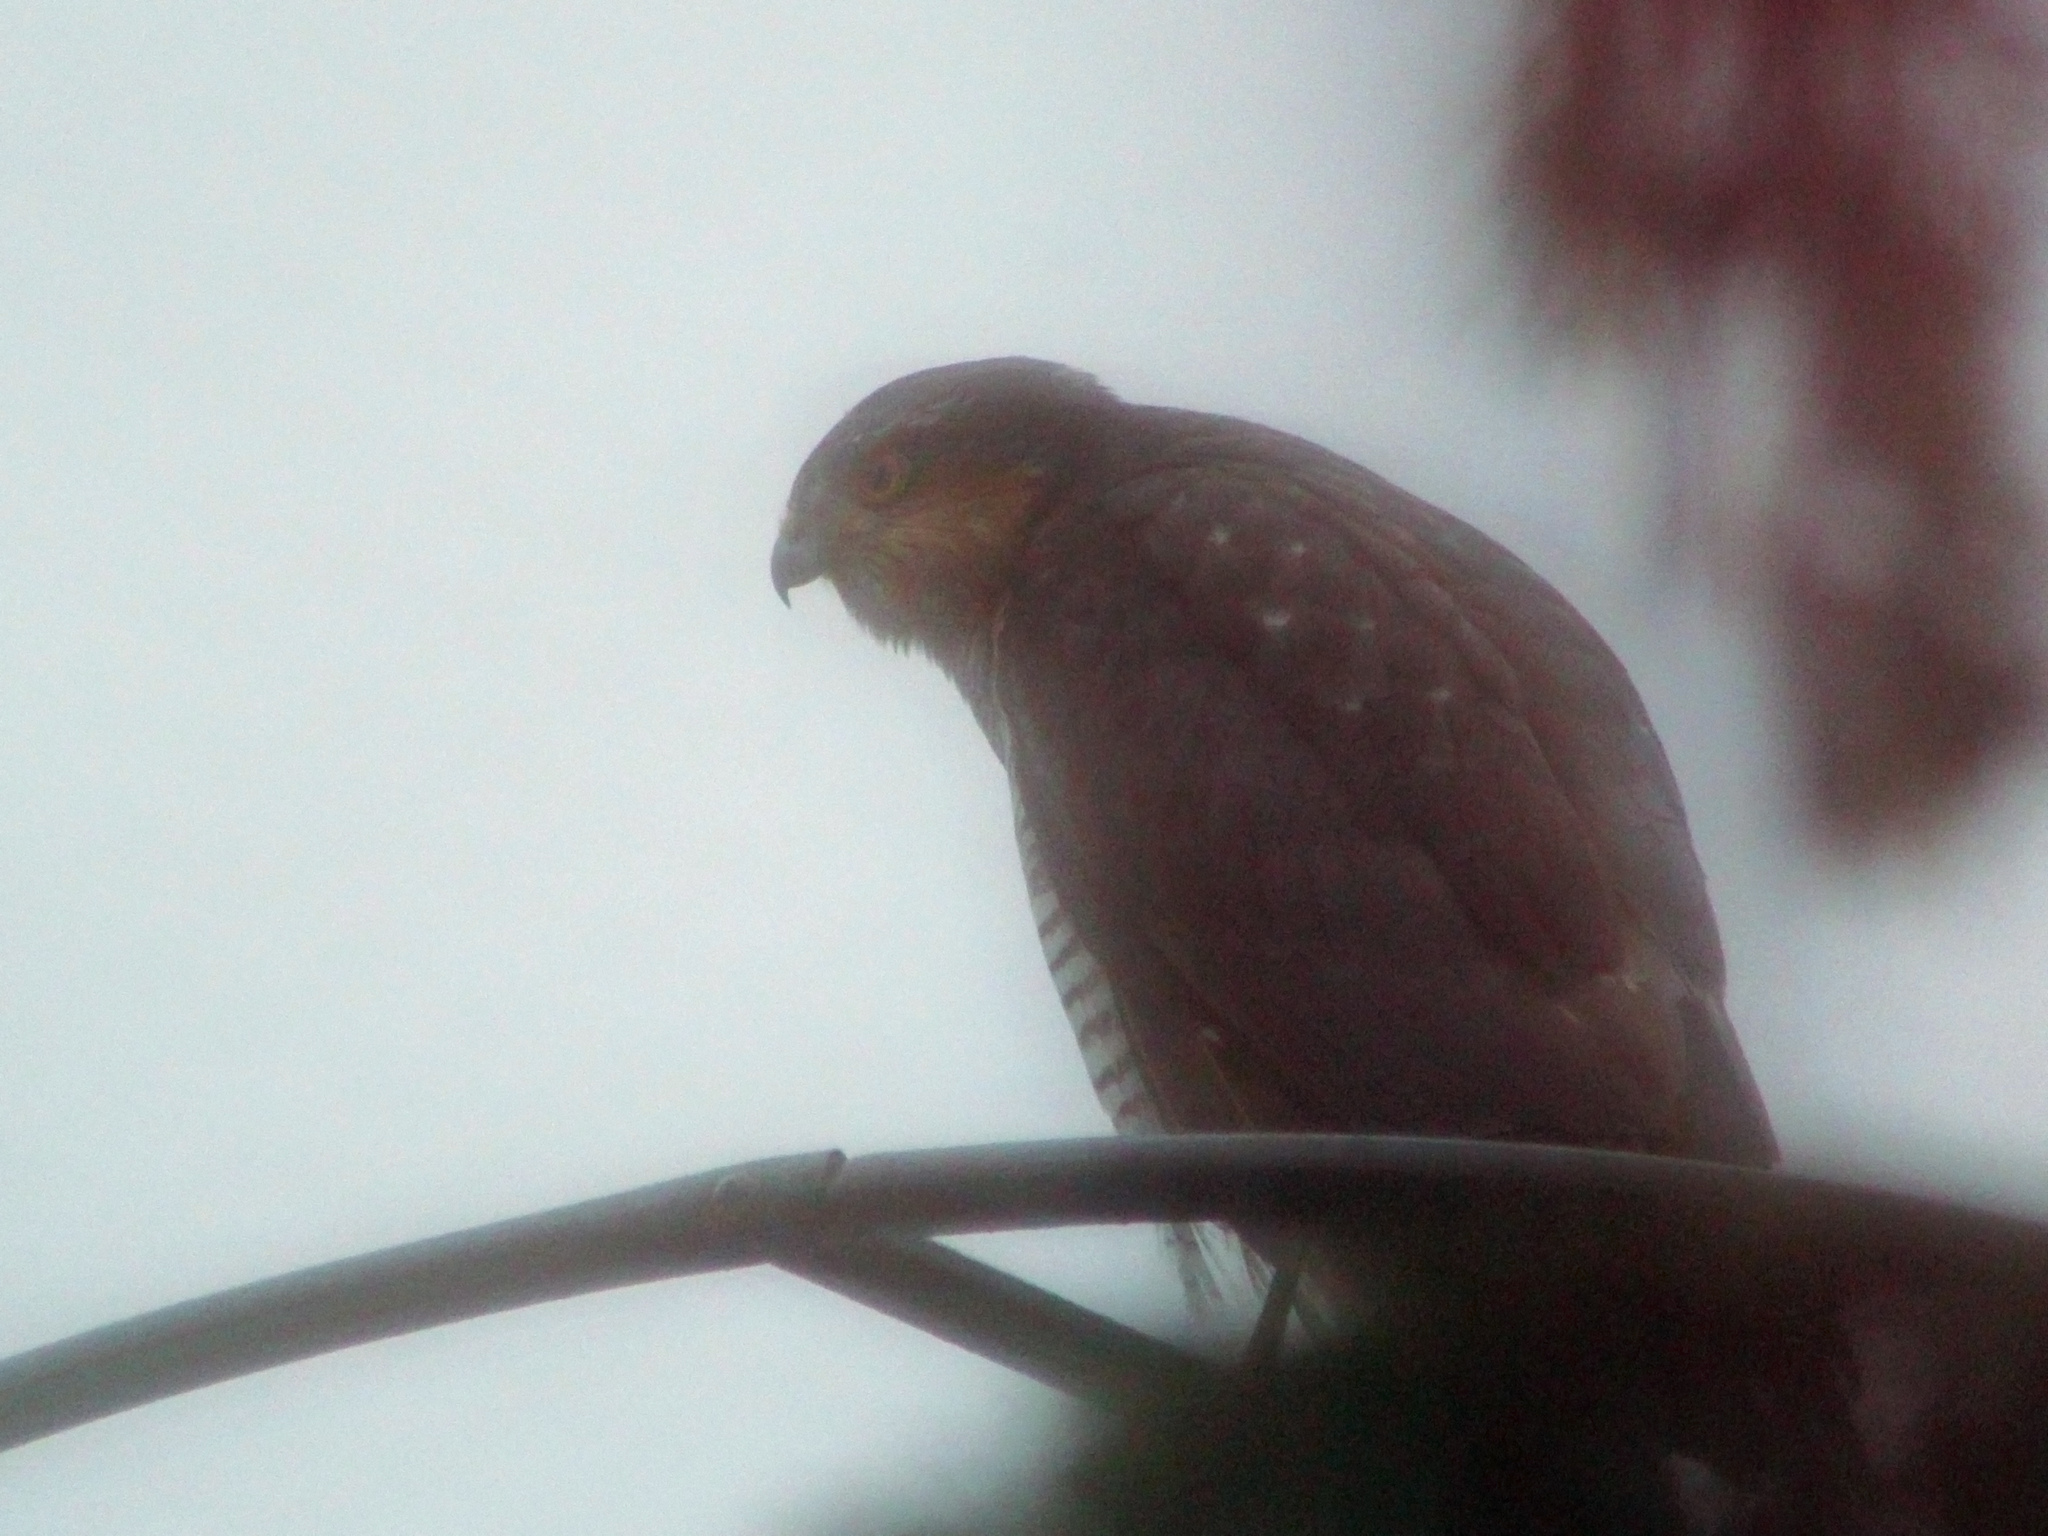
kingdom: Animalia
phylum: Chordata
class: Aves
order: Accipitriformes
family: Accipitridae
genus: Accipiter
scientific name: Accipiter nisus
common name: Eurasian sparrowhawk
